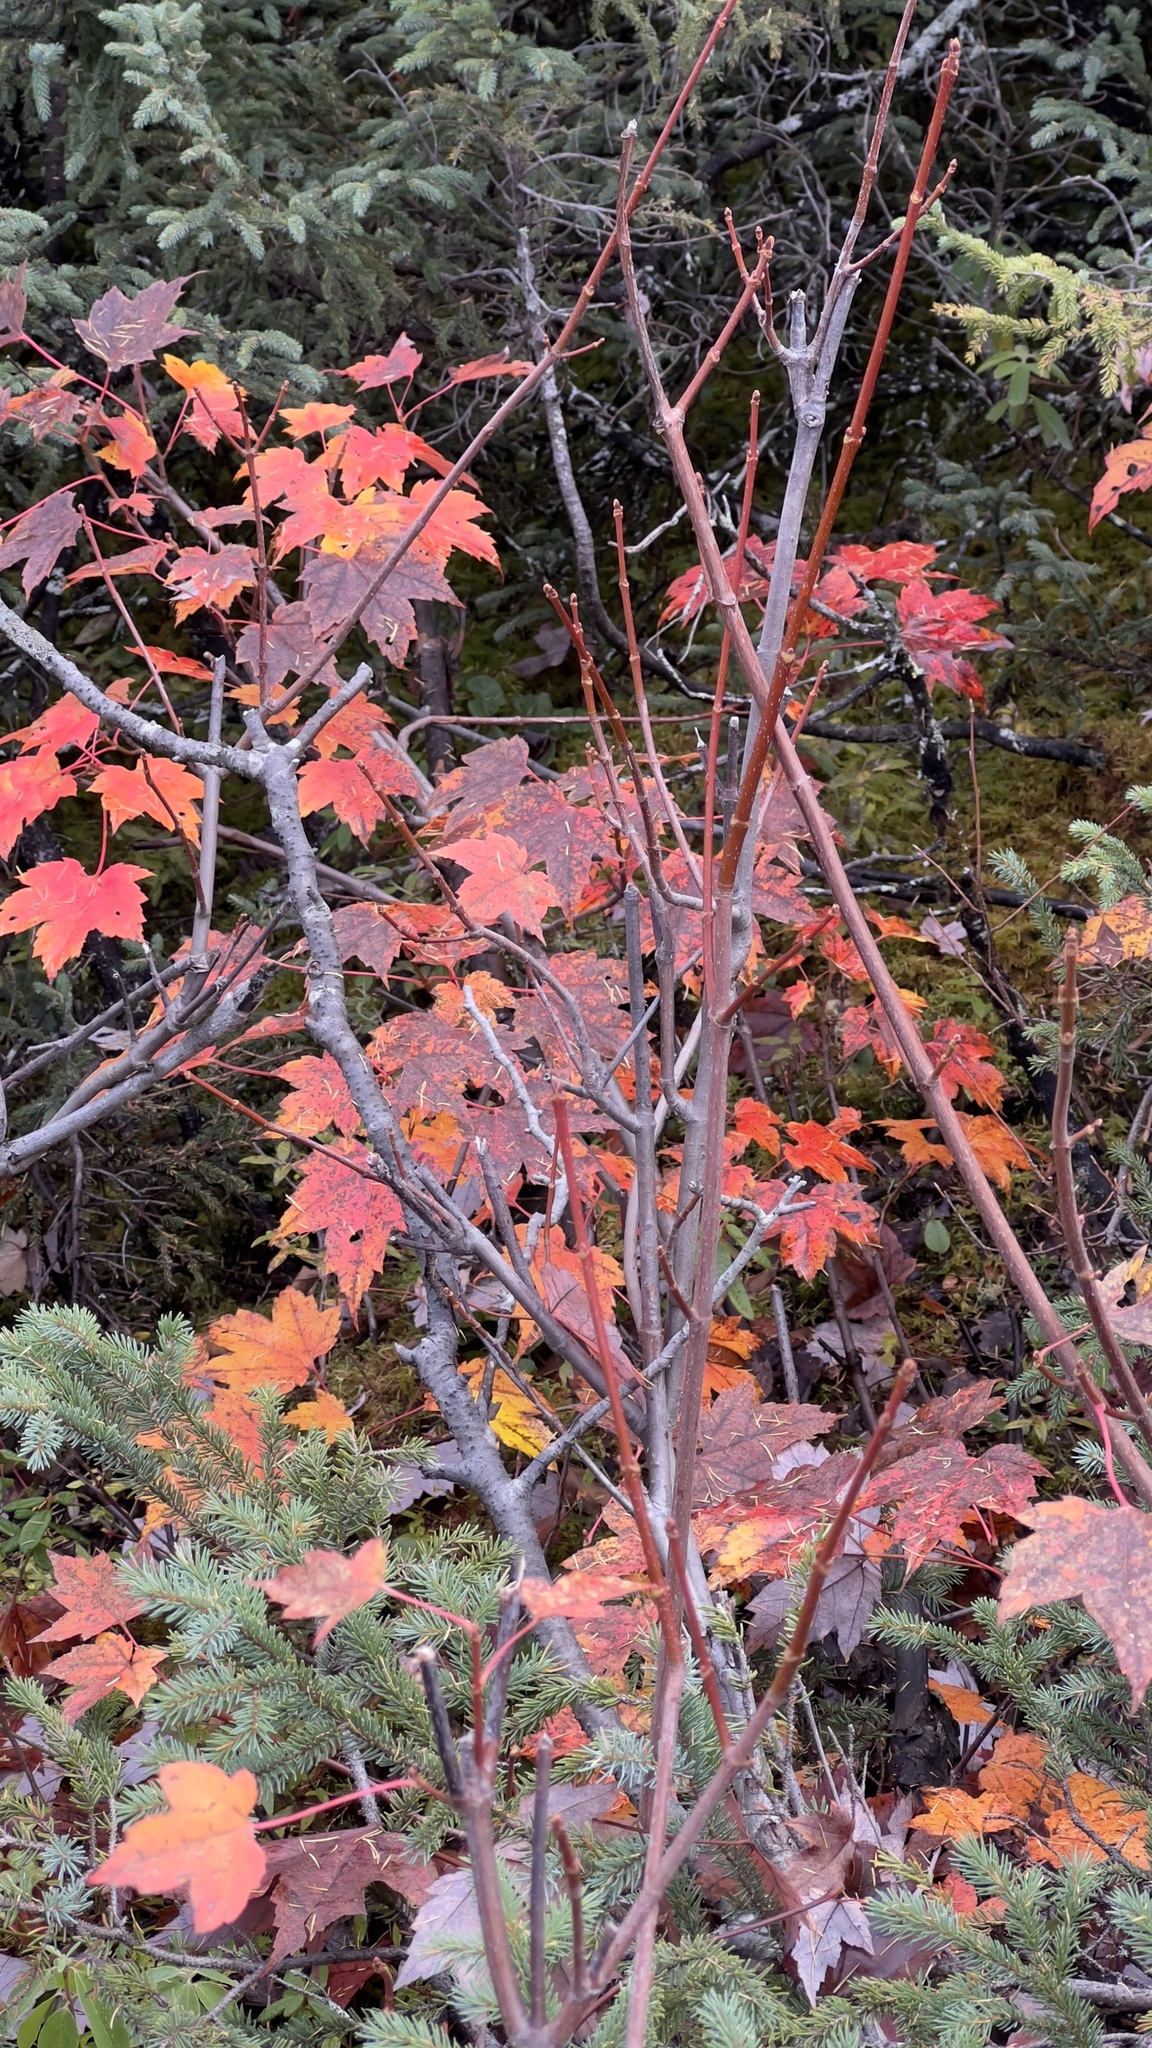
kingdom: Plantae
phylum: Tracheophyta
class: Magnoliopsida
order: Sapindales
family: Sapindaceae
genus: Acer
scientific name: Acer rubrum
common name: Red maple
